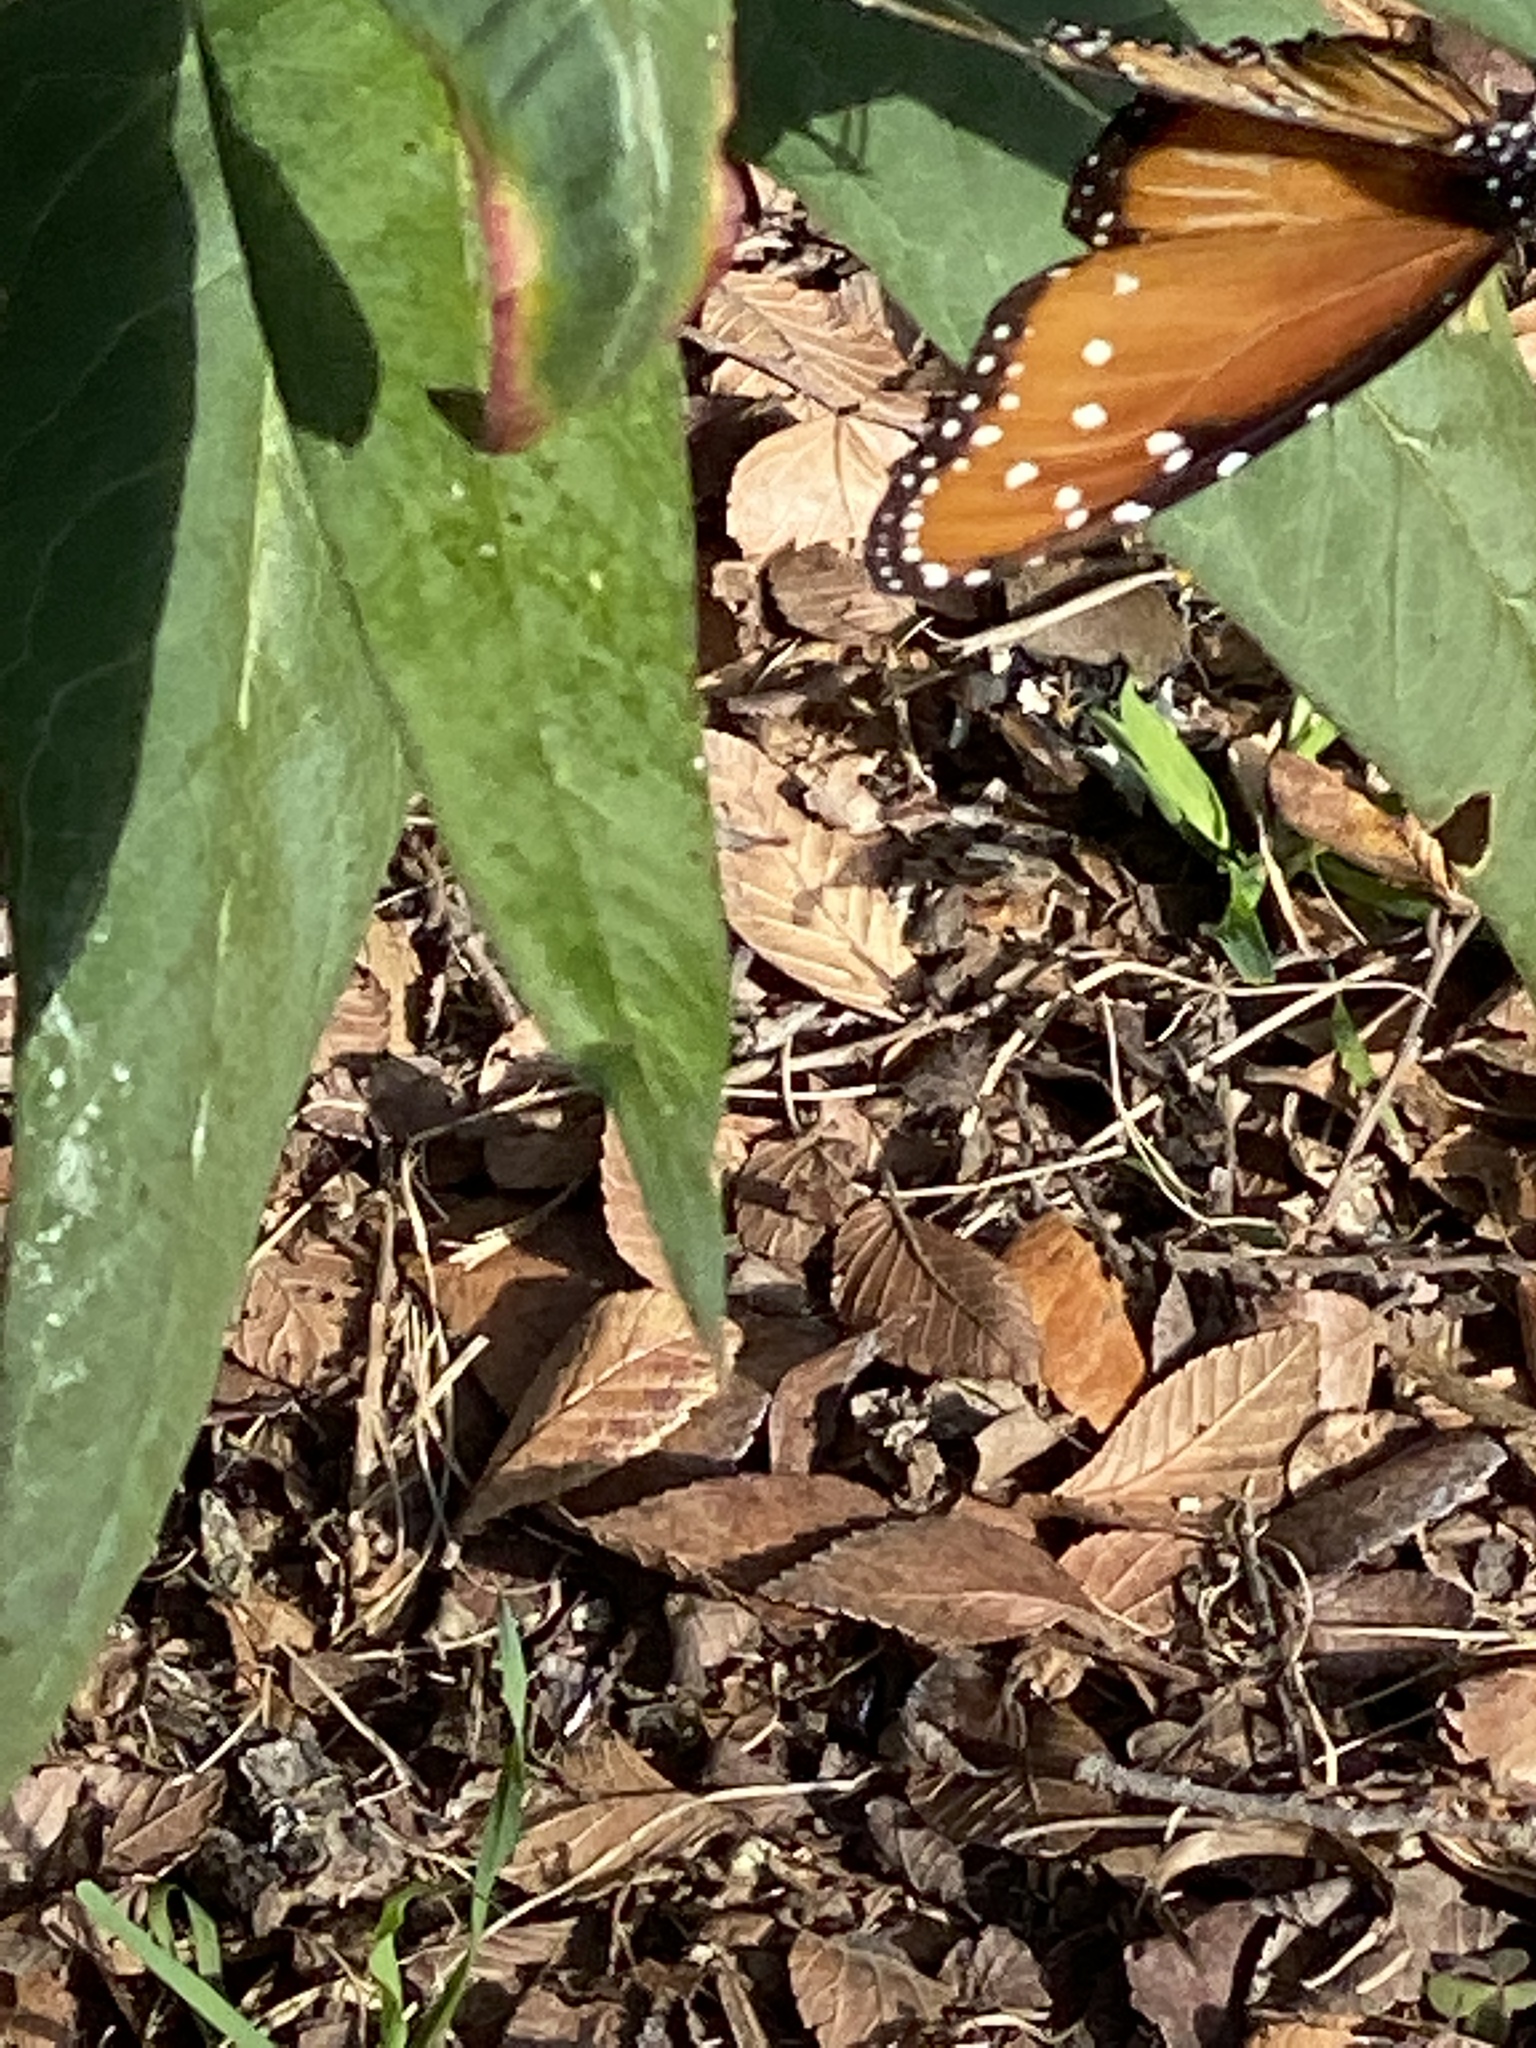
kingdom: Animalia
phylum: Arthropoda
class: Insecta
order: Lepidoptera
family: Nymphalidae
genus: Danaus
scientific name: Danaus gilippus
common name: Queen
